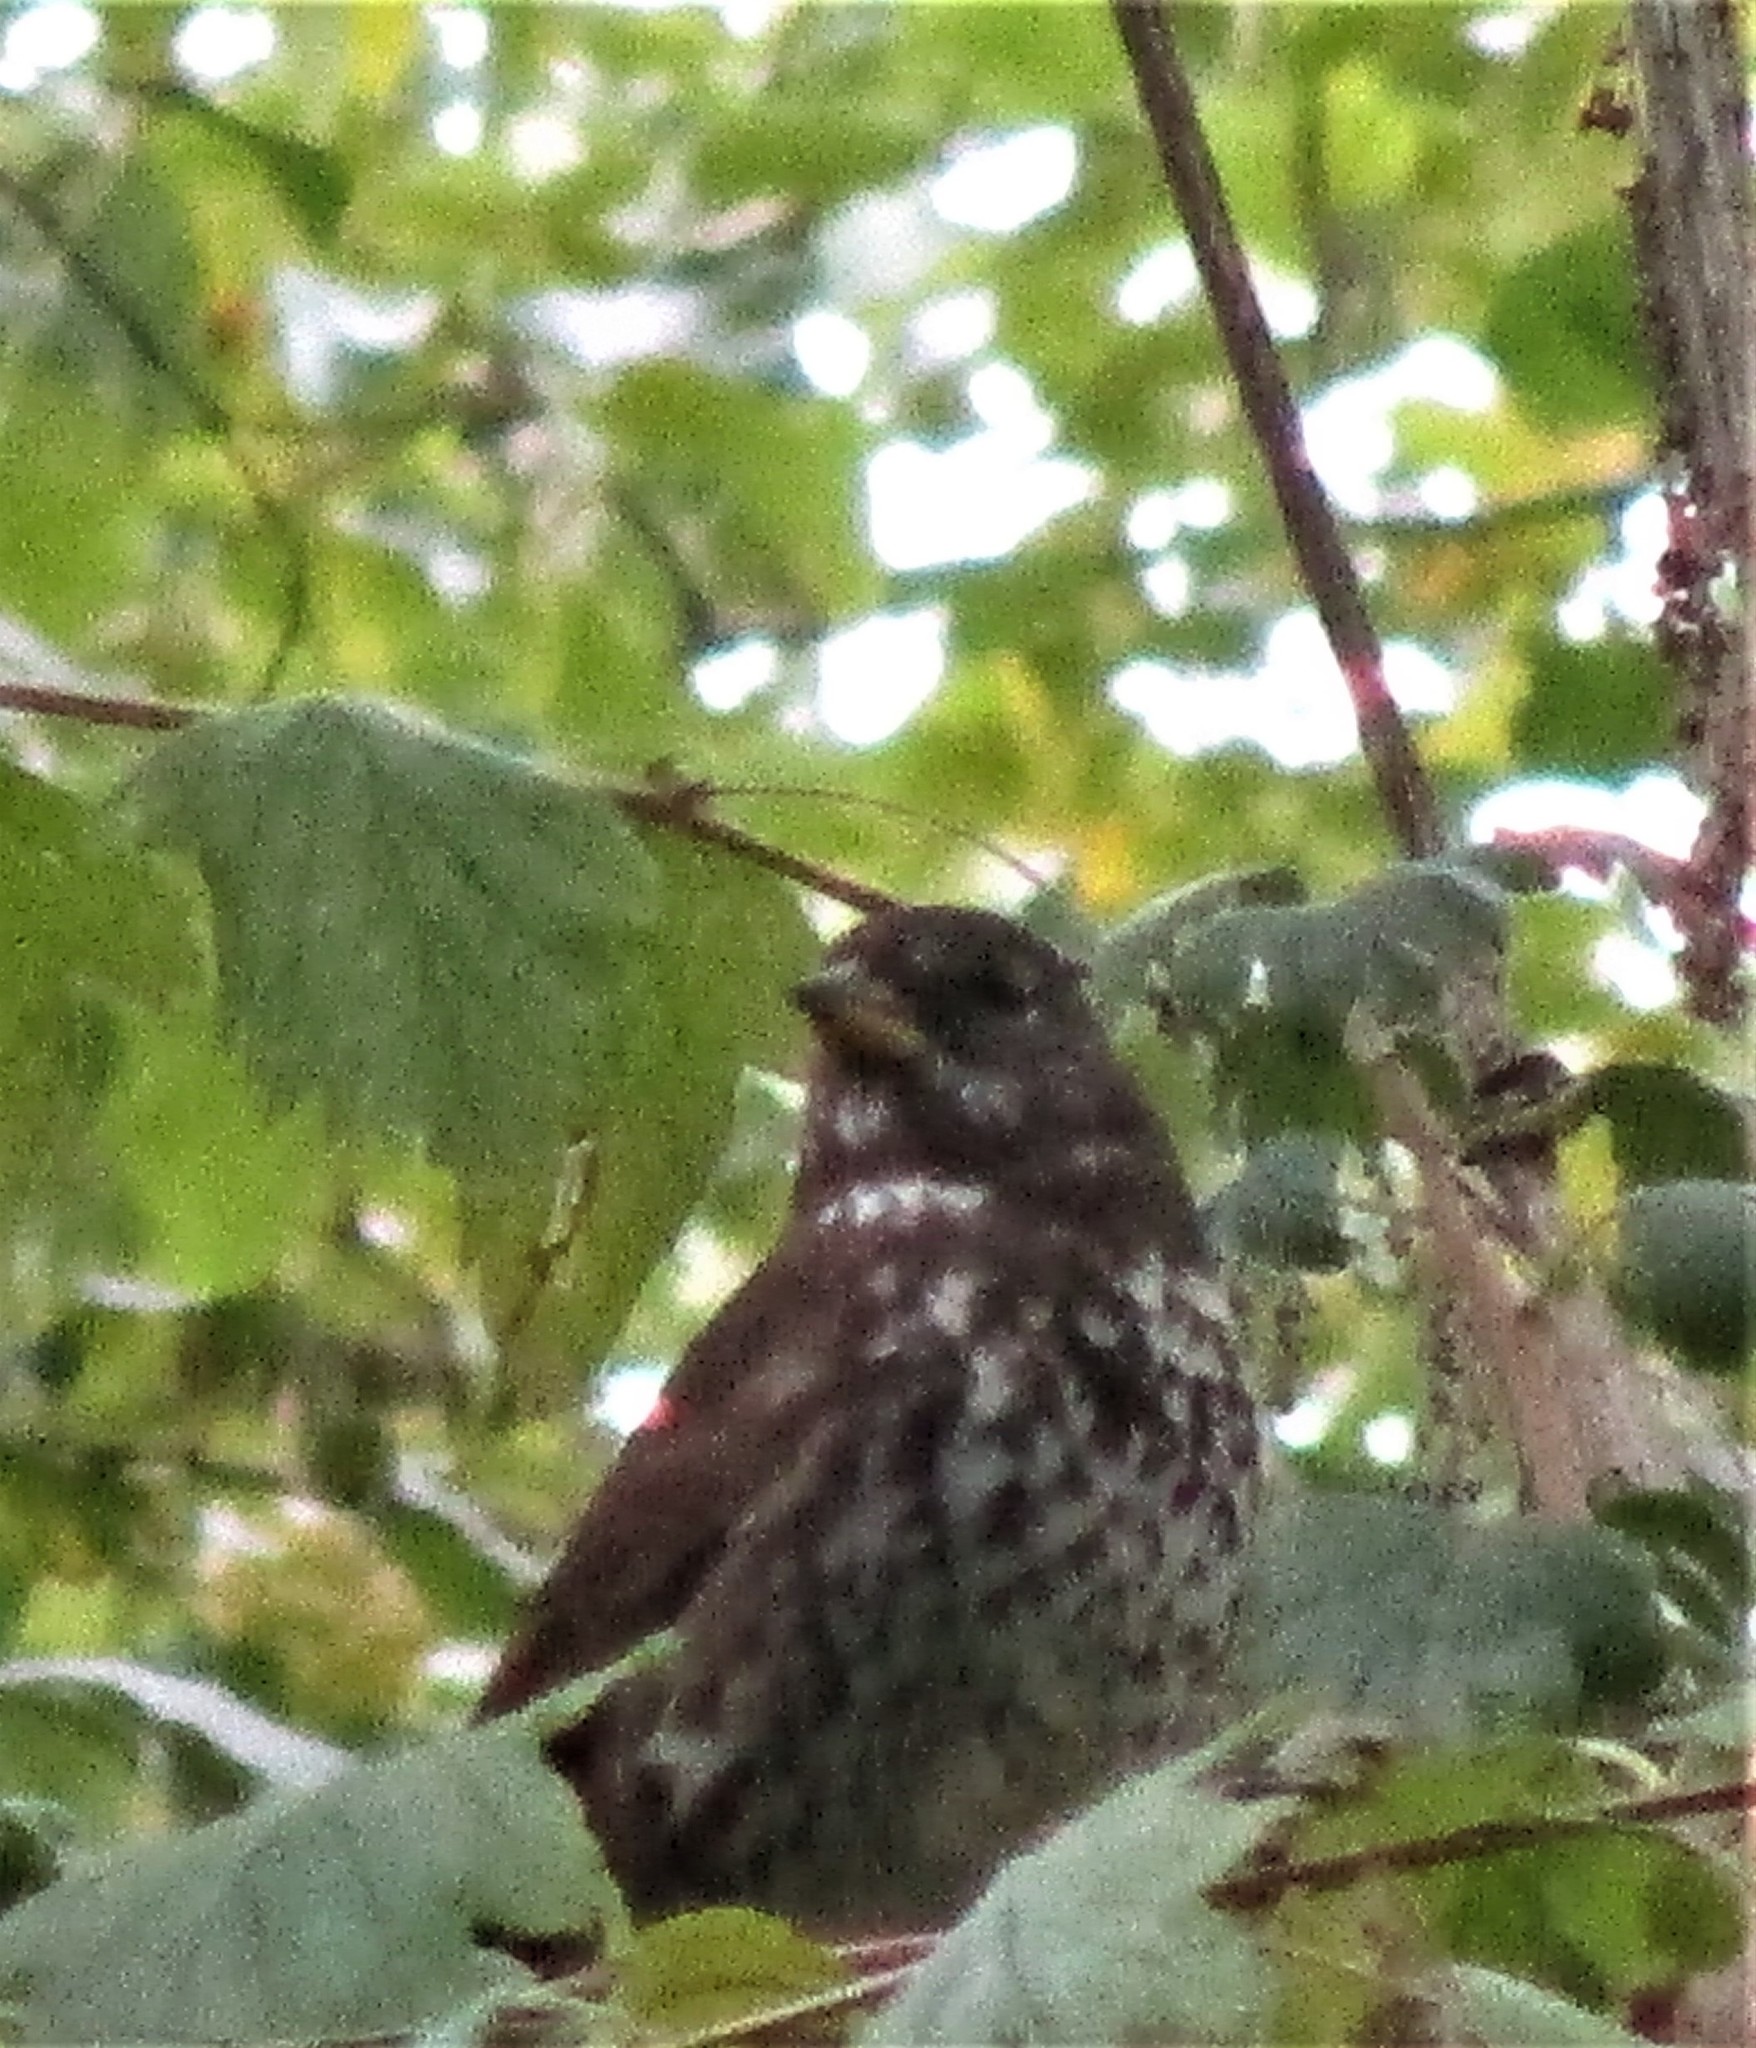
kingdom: Animalia
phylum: Chordata
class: Aves
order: Passeriformes
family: Passerellidae
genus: Passerella
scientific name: Passerella iliaca
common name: Fox sparrow
